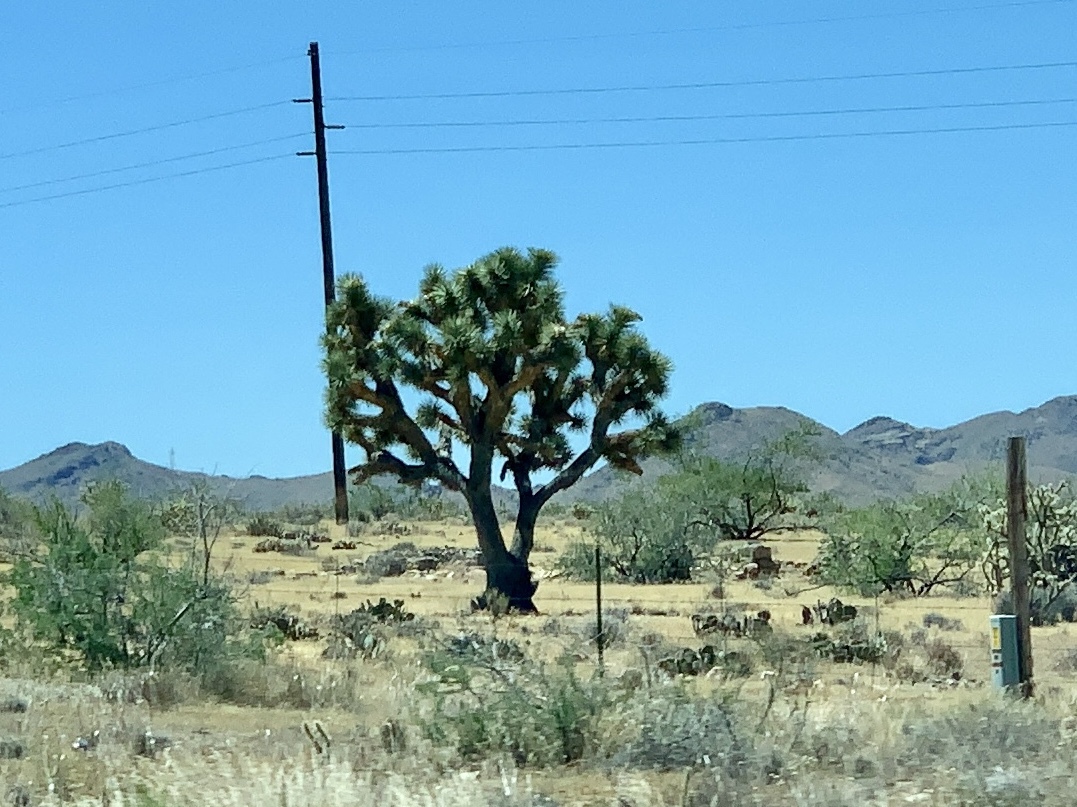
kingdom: Plantae
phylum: Tracheophyta
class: Liliopsida
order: Asparagales
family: Asparagaceae
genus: Yucca
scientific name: Yucca brevifolia
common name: Joshua tree
